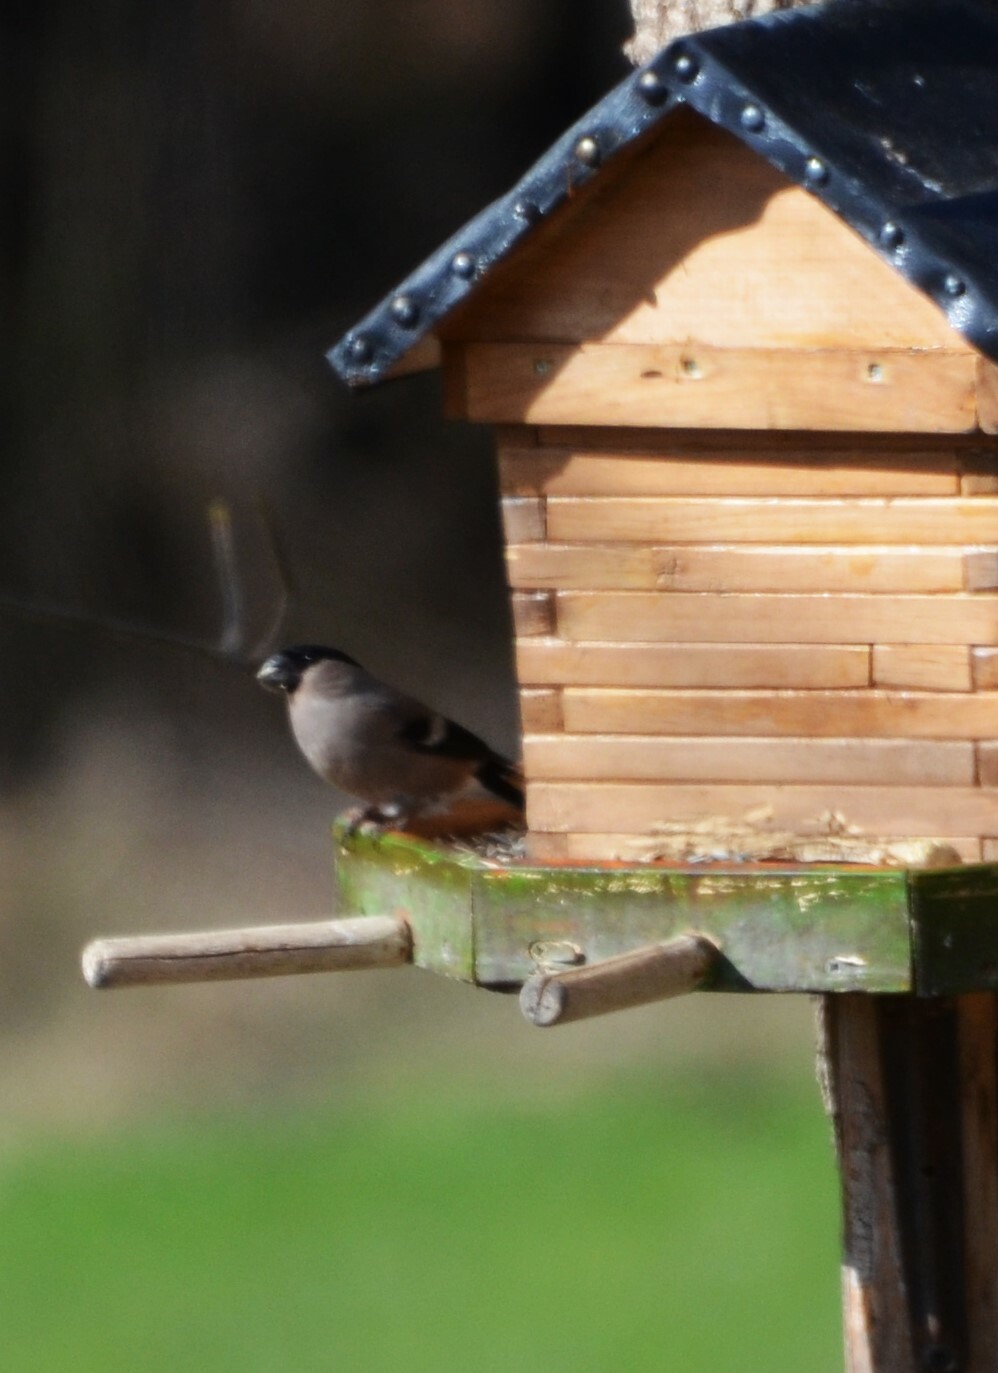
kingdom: Animalia
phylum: Chordata
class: Aves
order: Passeriformes
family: Fringillidae
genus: Pyrrhula
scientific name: Pyrrhula pyrrhula
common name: Eurasian bullfinch
